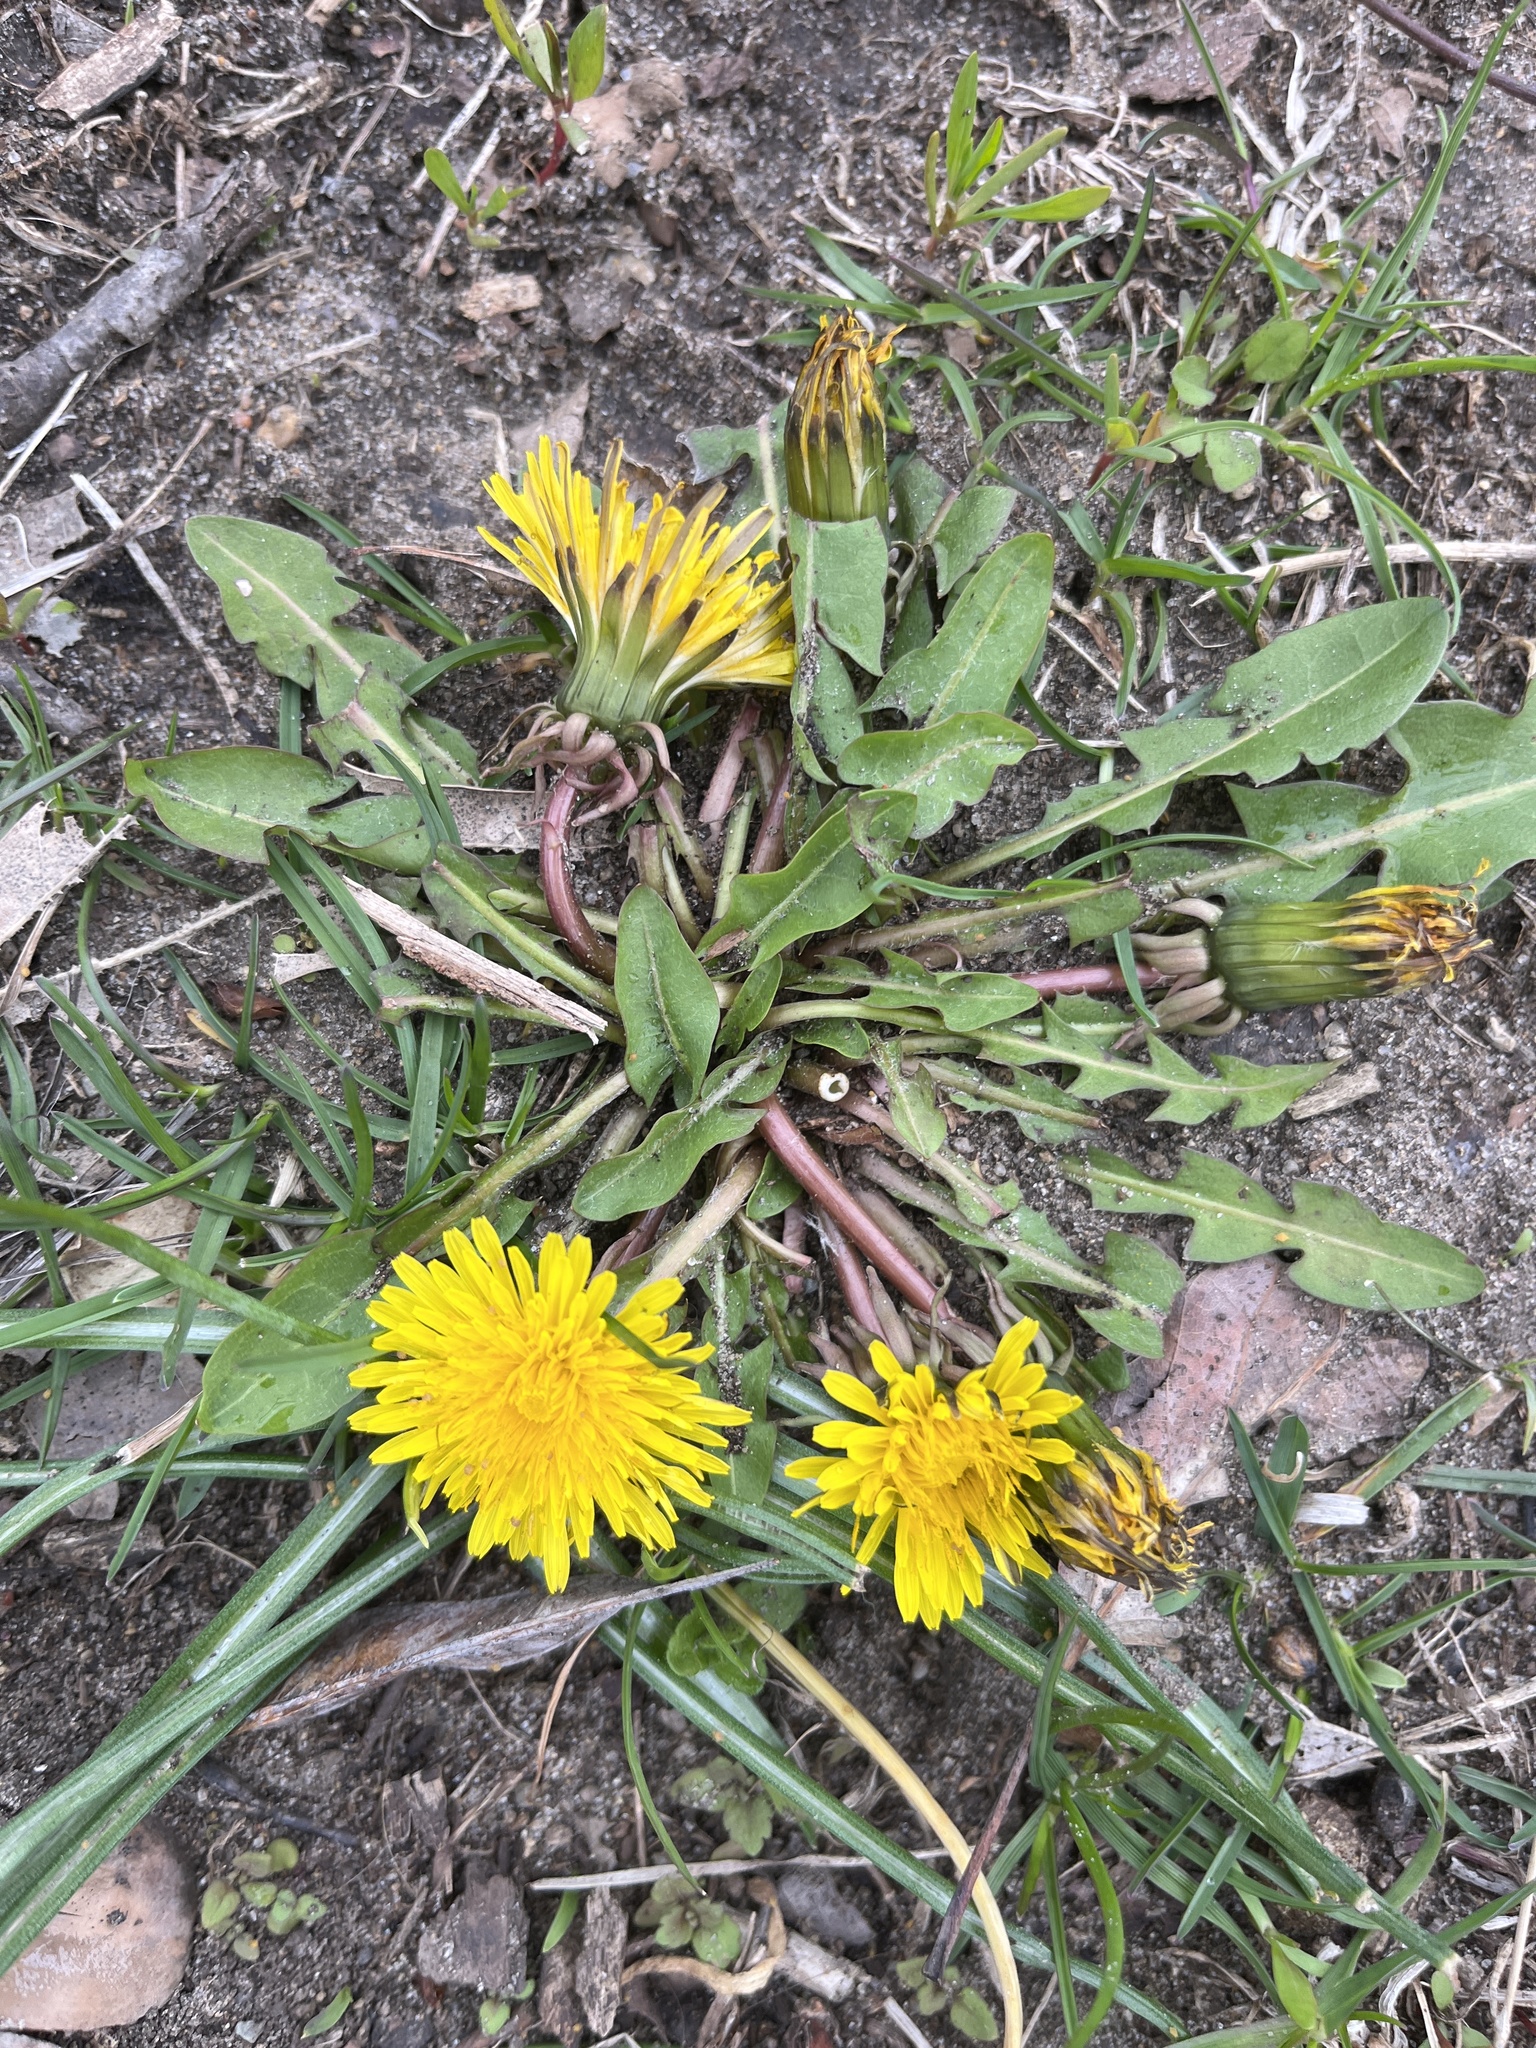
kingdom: Plantae
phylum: Tracheophyta
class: Magnoliopsida
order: Asterales
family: Asteraceae
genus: Taraxacum
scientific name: Taraxacum officinale
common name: Common dandelion
